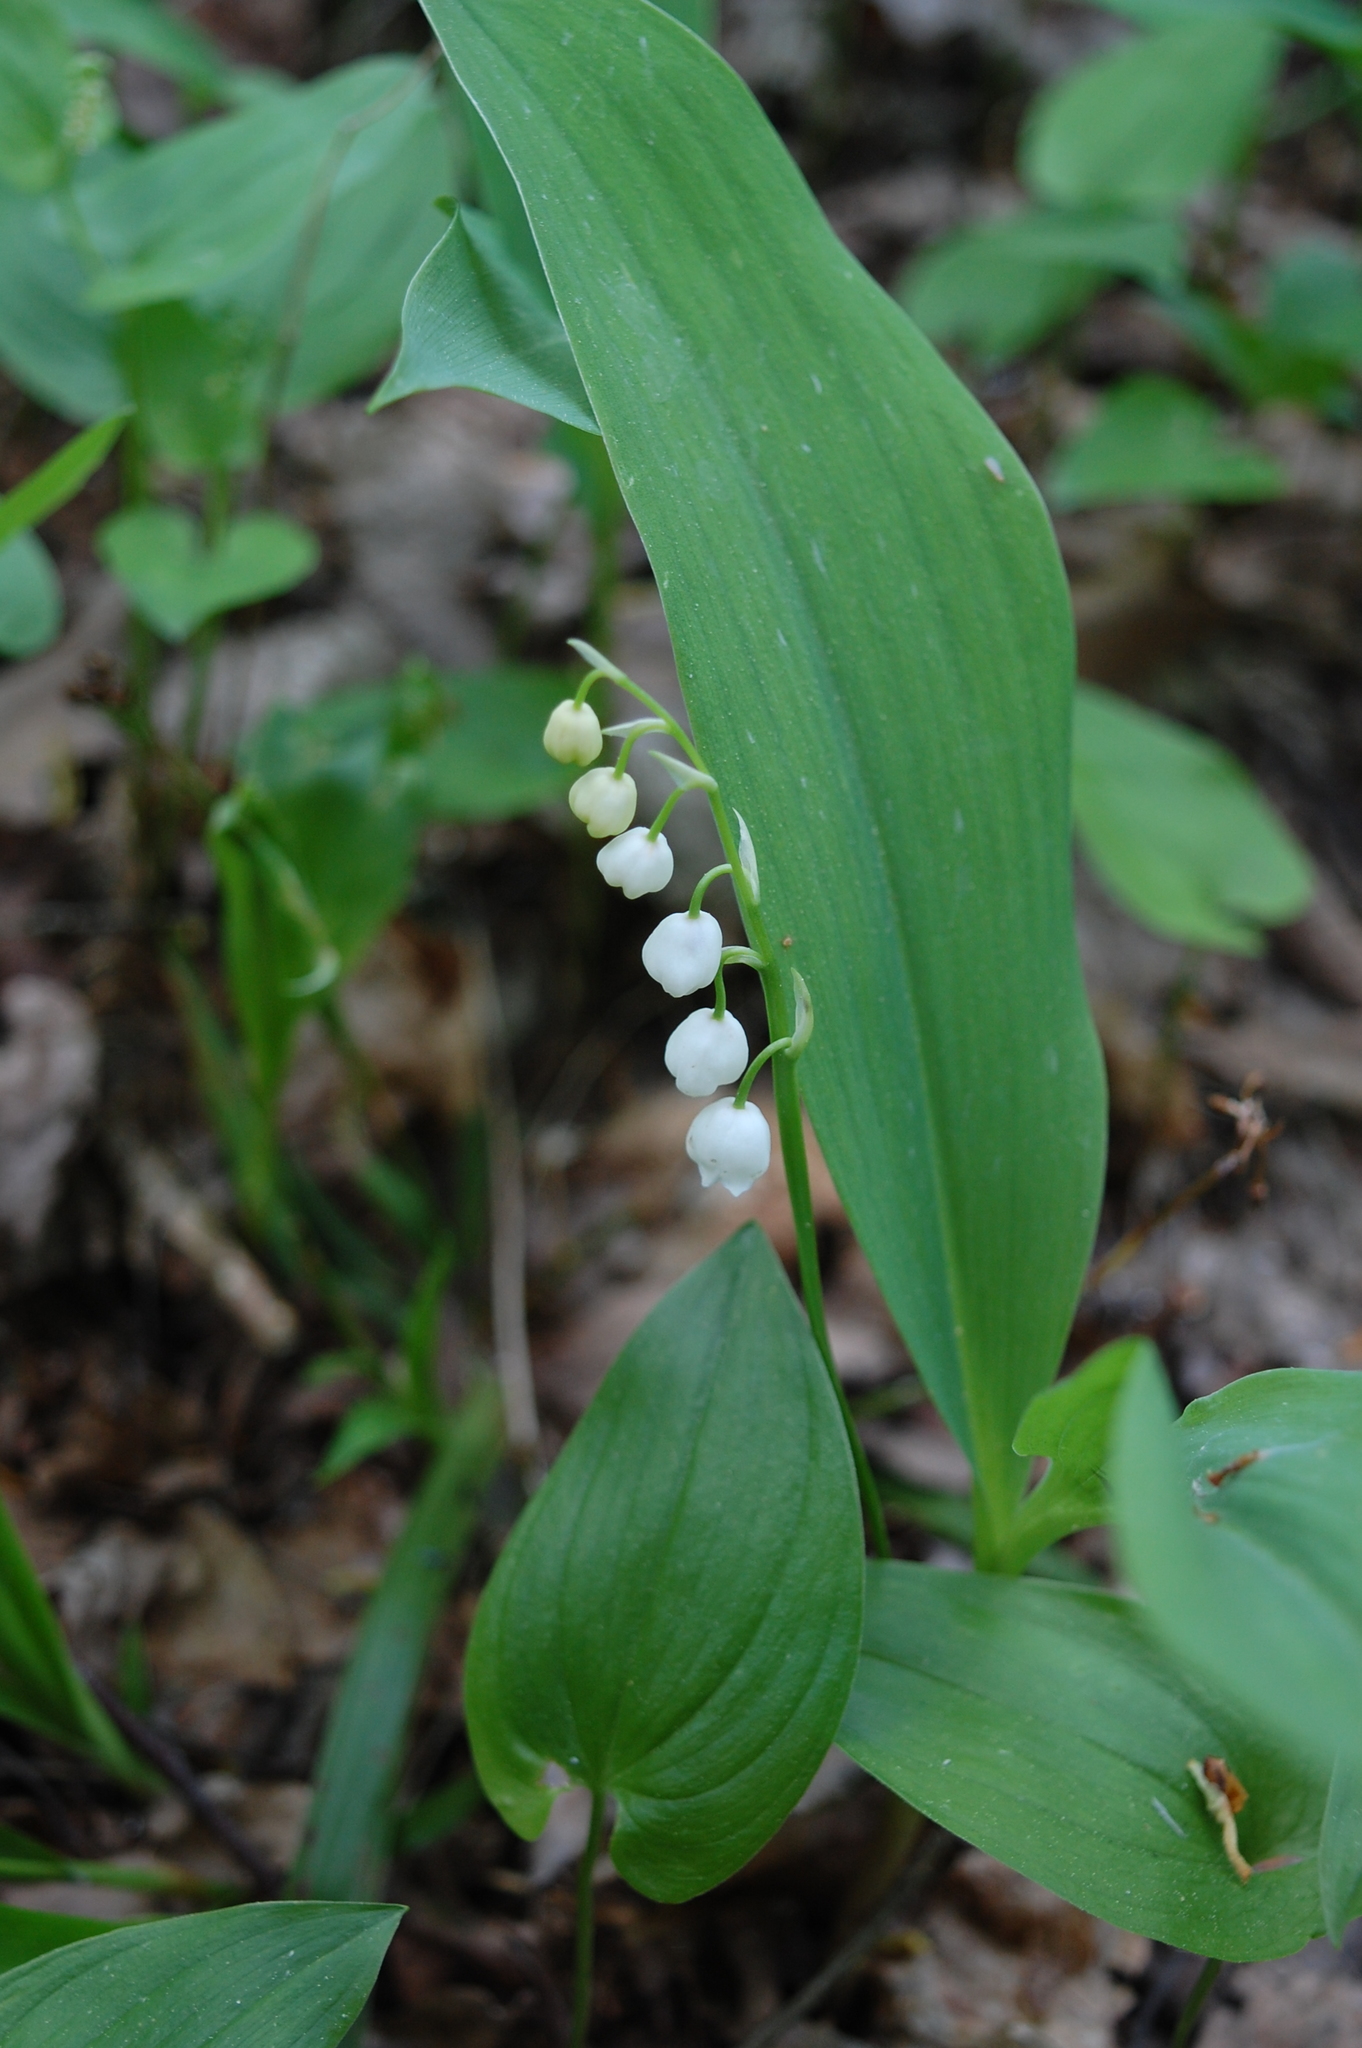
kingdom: Plantae
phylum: Tracheophyta
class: Liliopsida
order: Asparagales
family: Asparagaceae
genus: Convallaria
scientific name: Convallaria majalis
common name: Lily-of-the-valley
